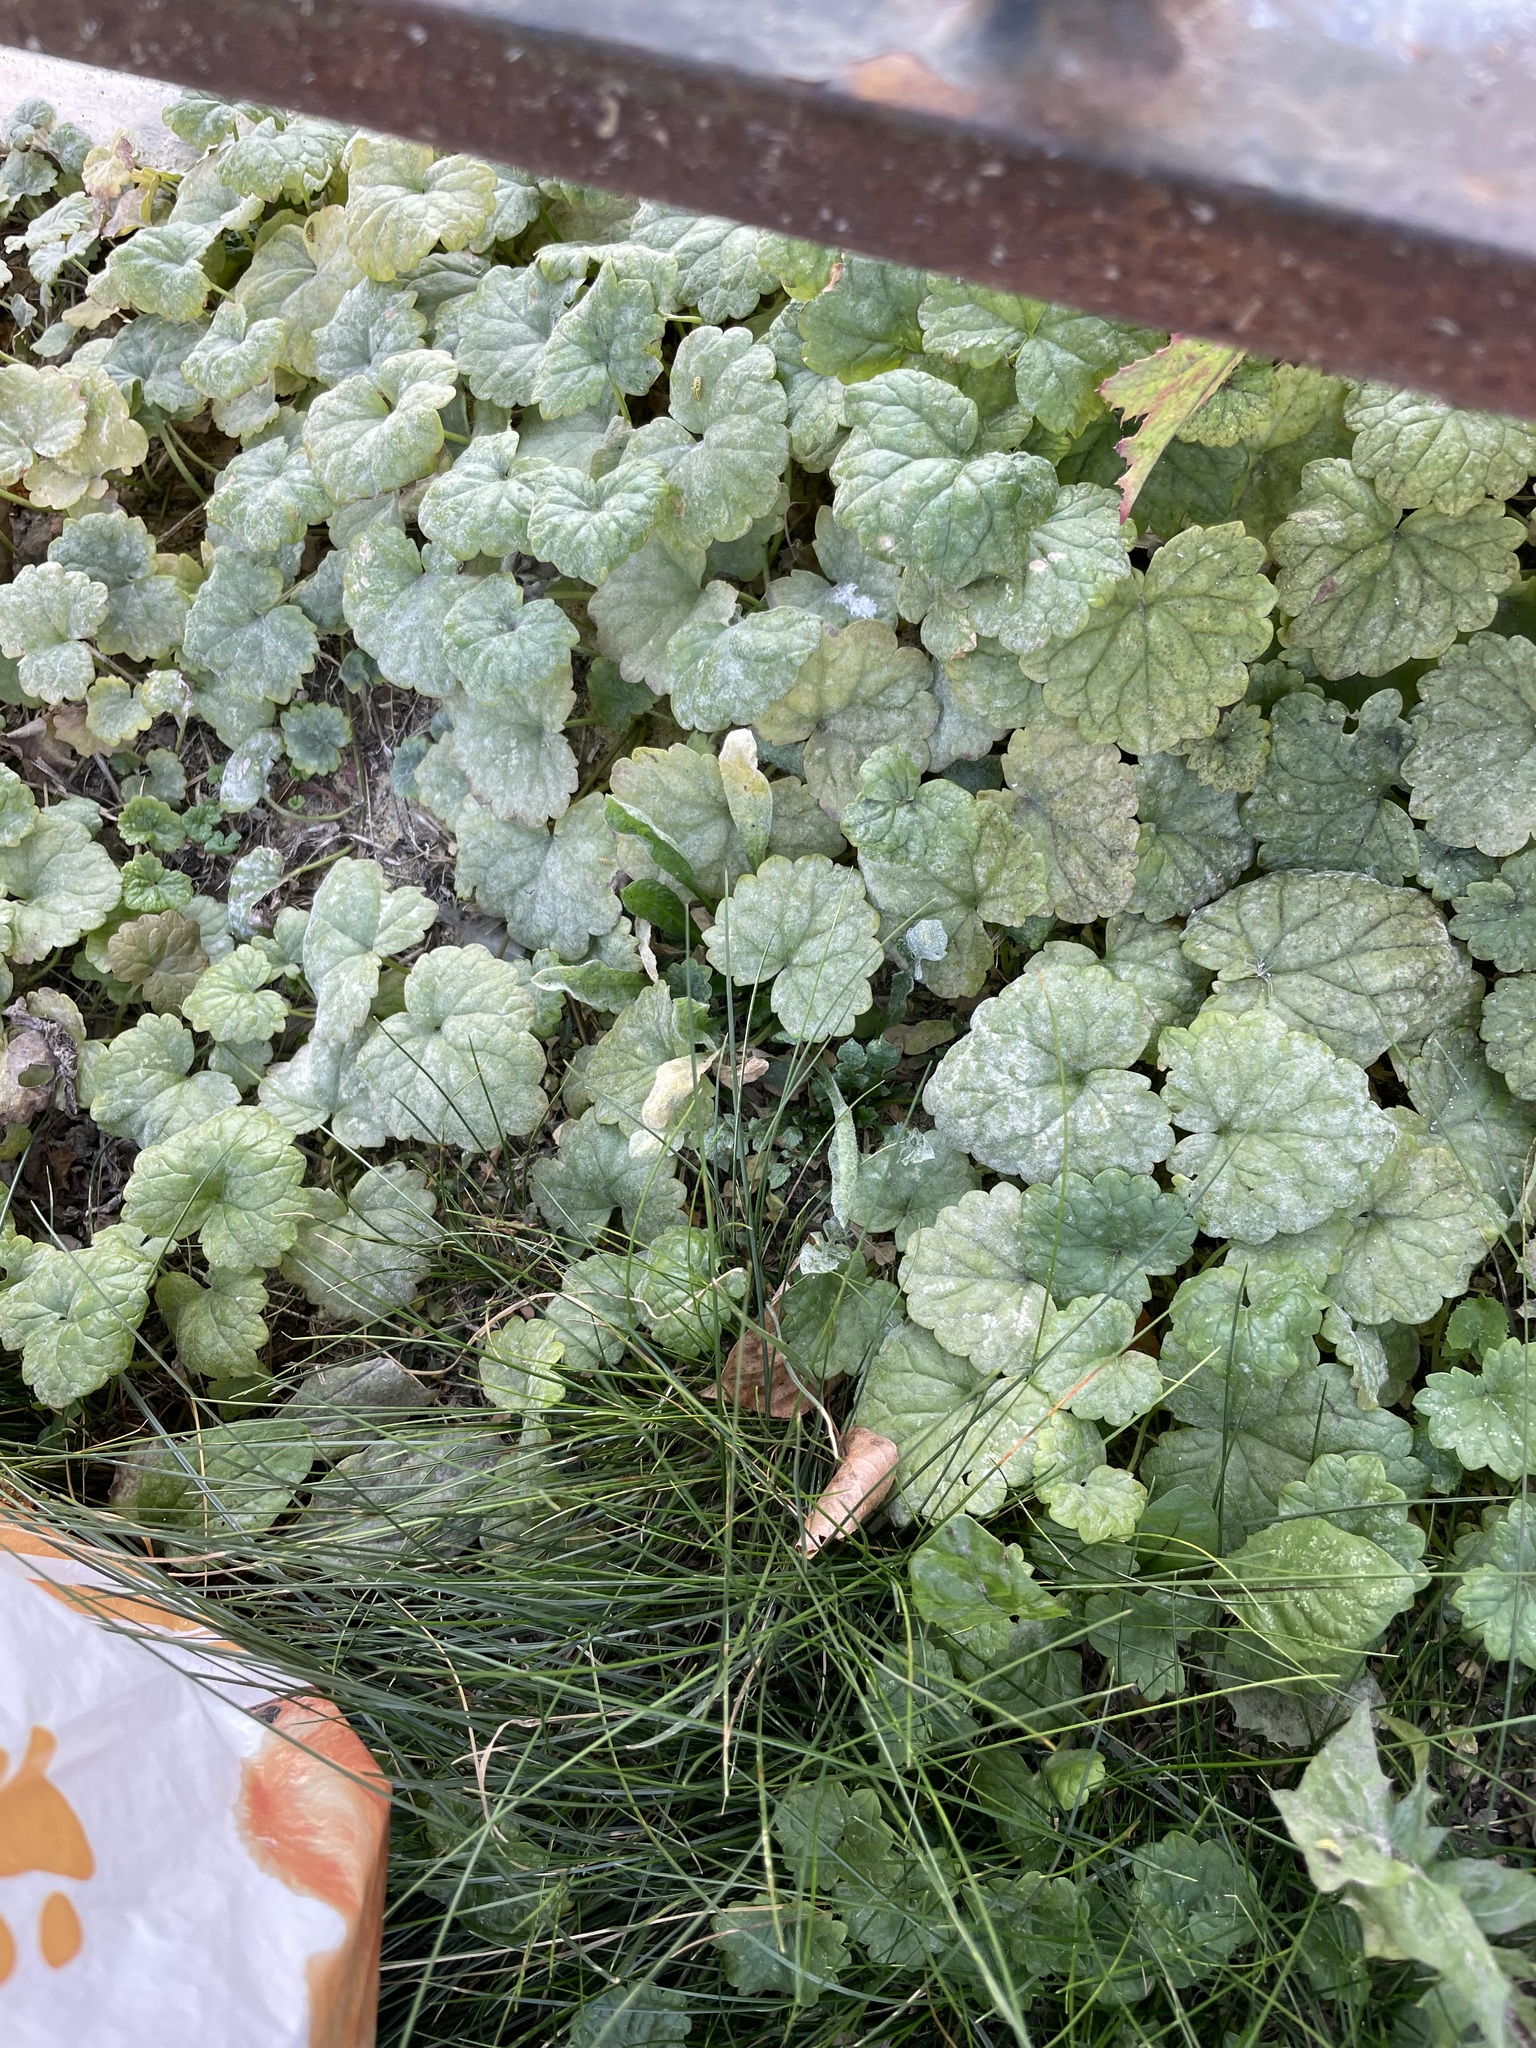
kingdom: Plantae
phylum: Tracheophyta
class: Magnoliopsida
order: Lamiales
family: Lamiaceae
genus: Glechoma
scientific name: Glechoma hederacea
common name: Ground ivy
